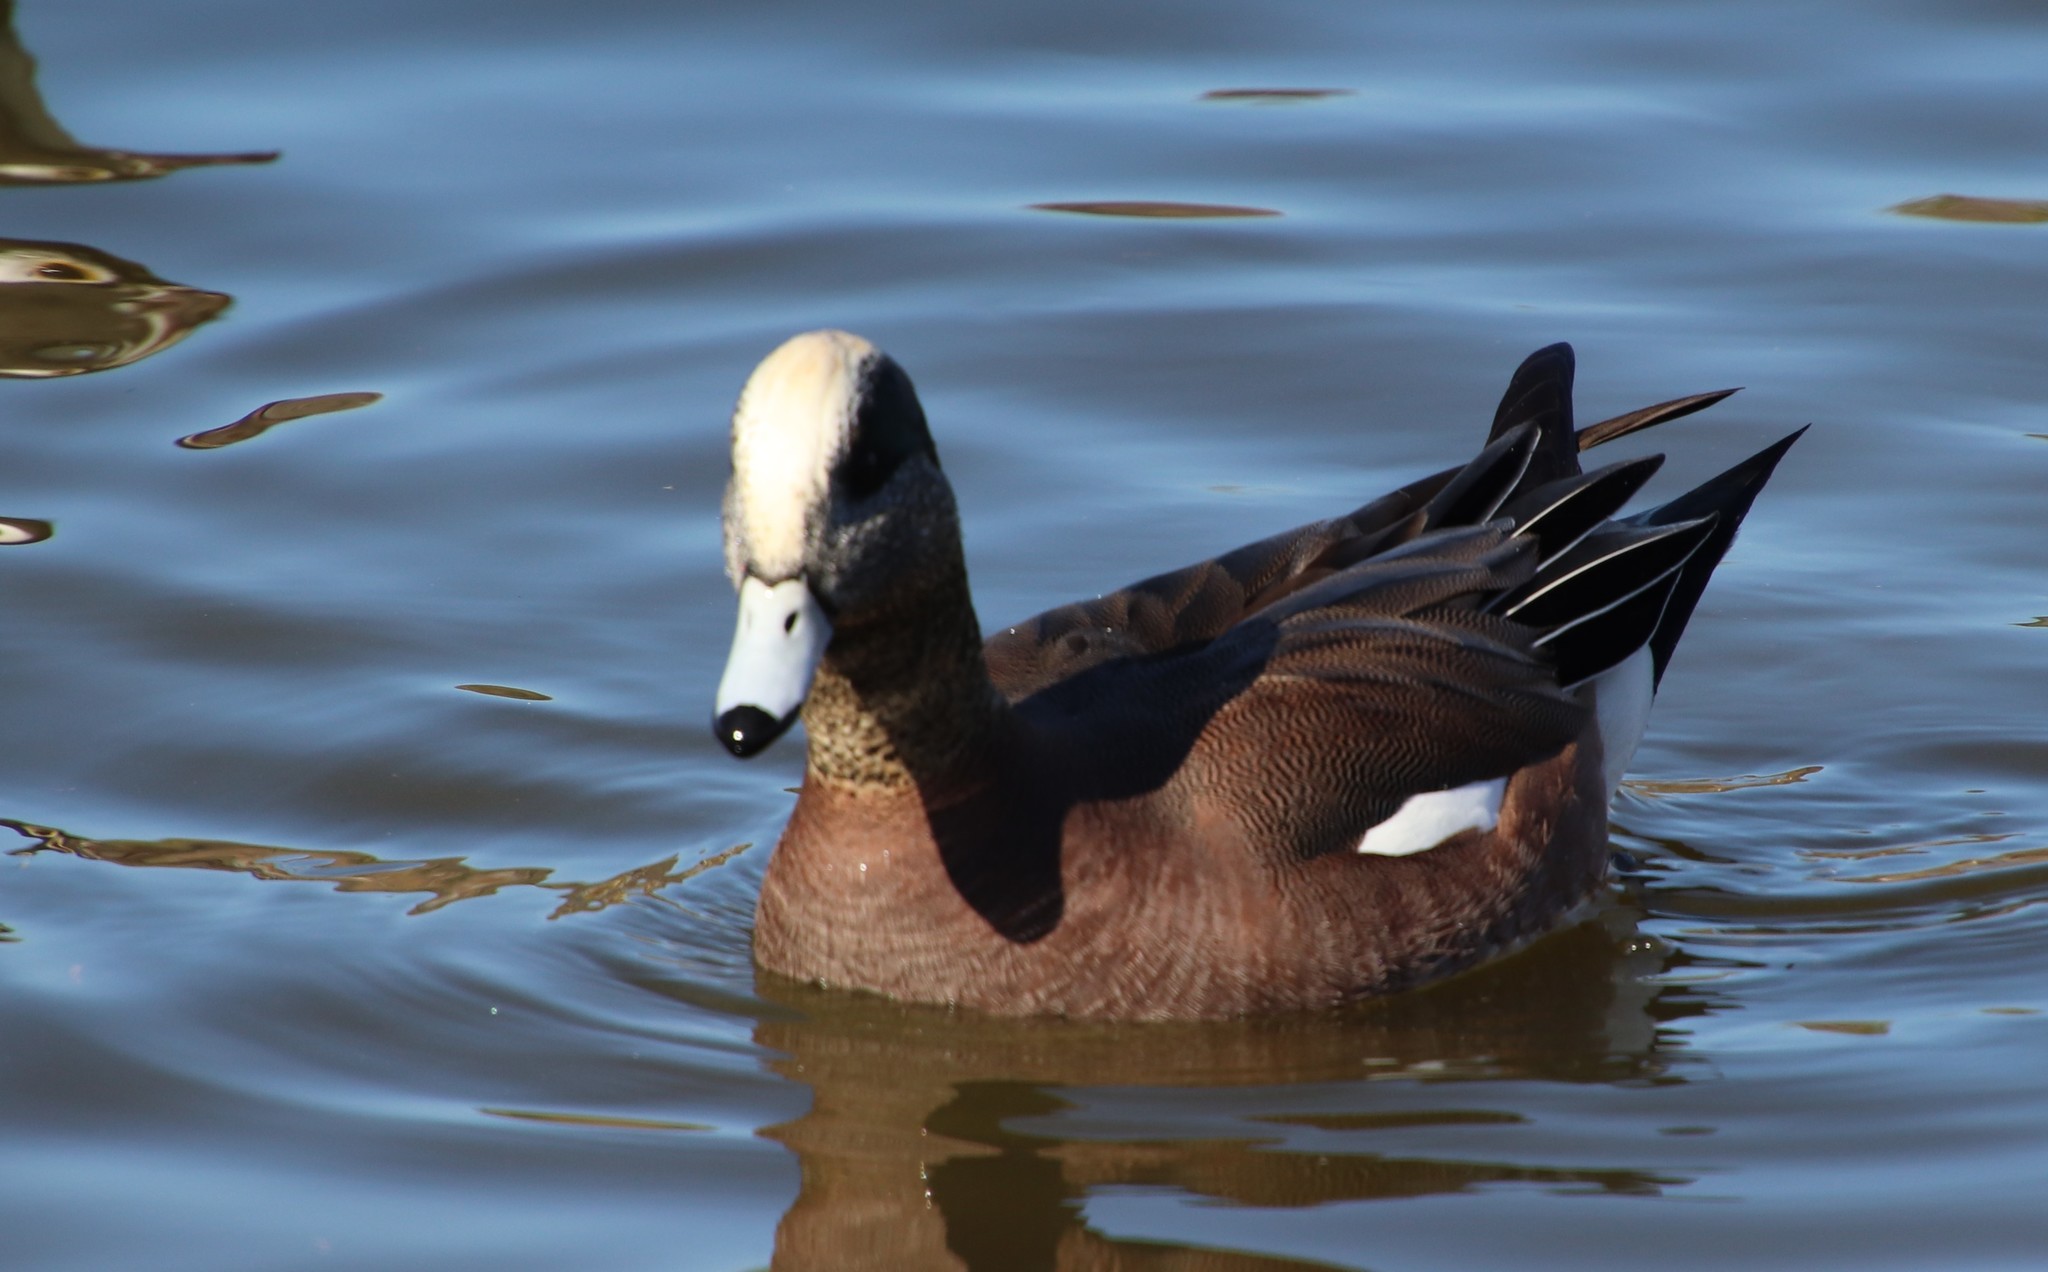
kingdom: Animalia
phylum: Chordata
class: Aves
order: Anseriformes
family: Anatidae
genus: Mareca
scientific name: Mareca americana
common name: American wigeon
